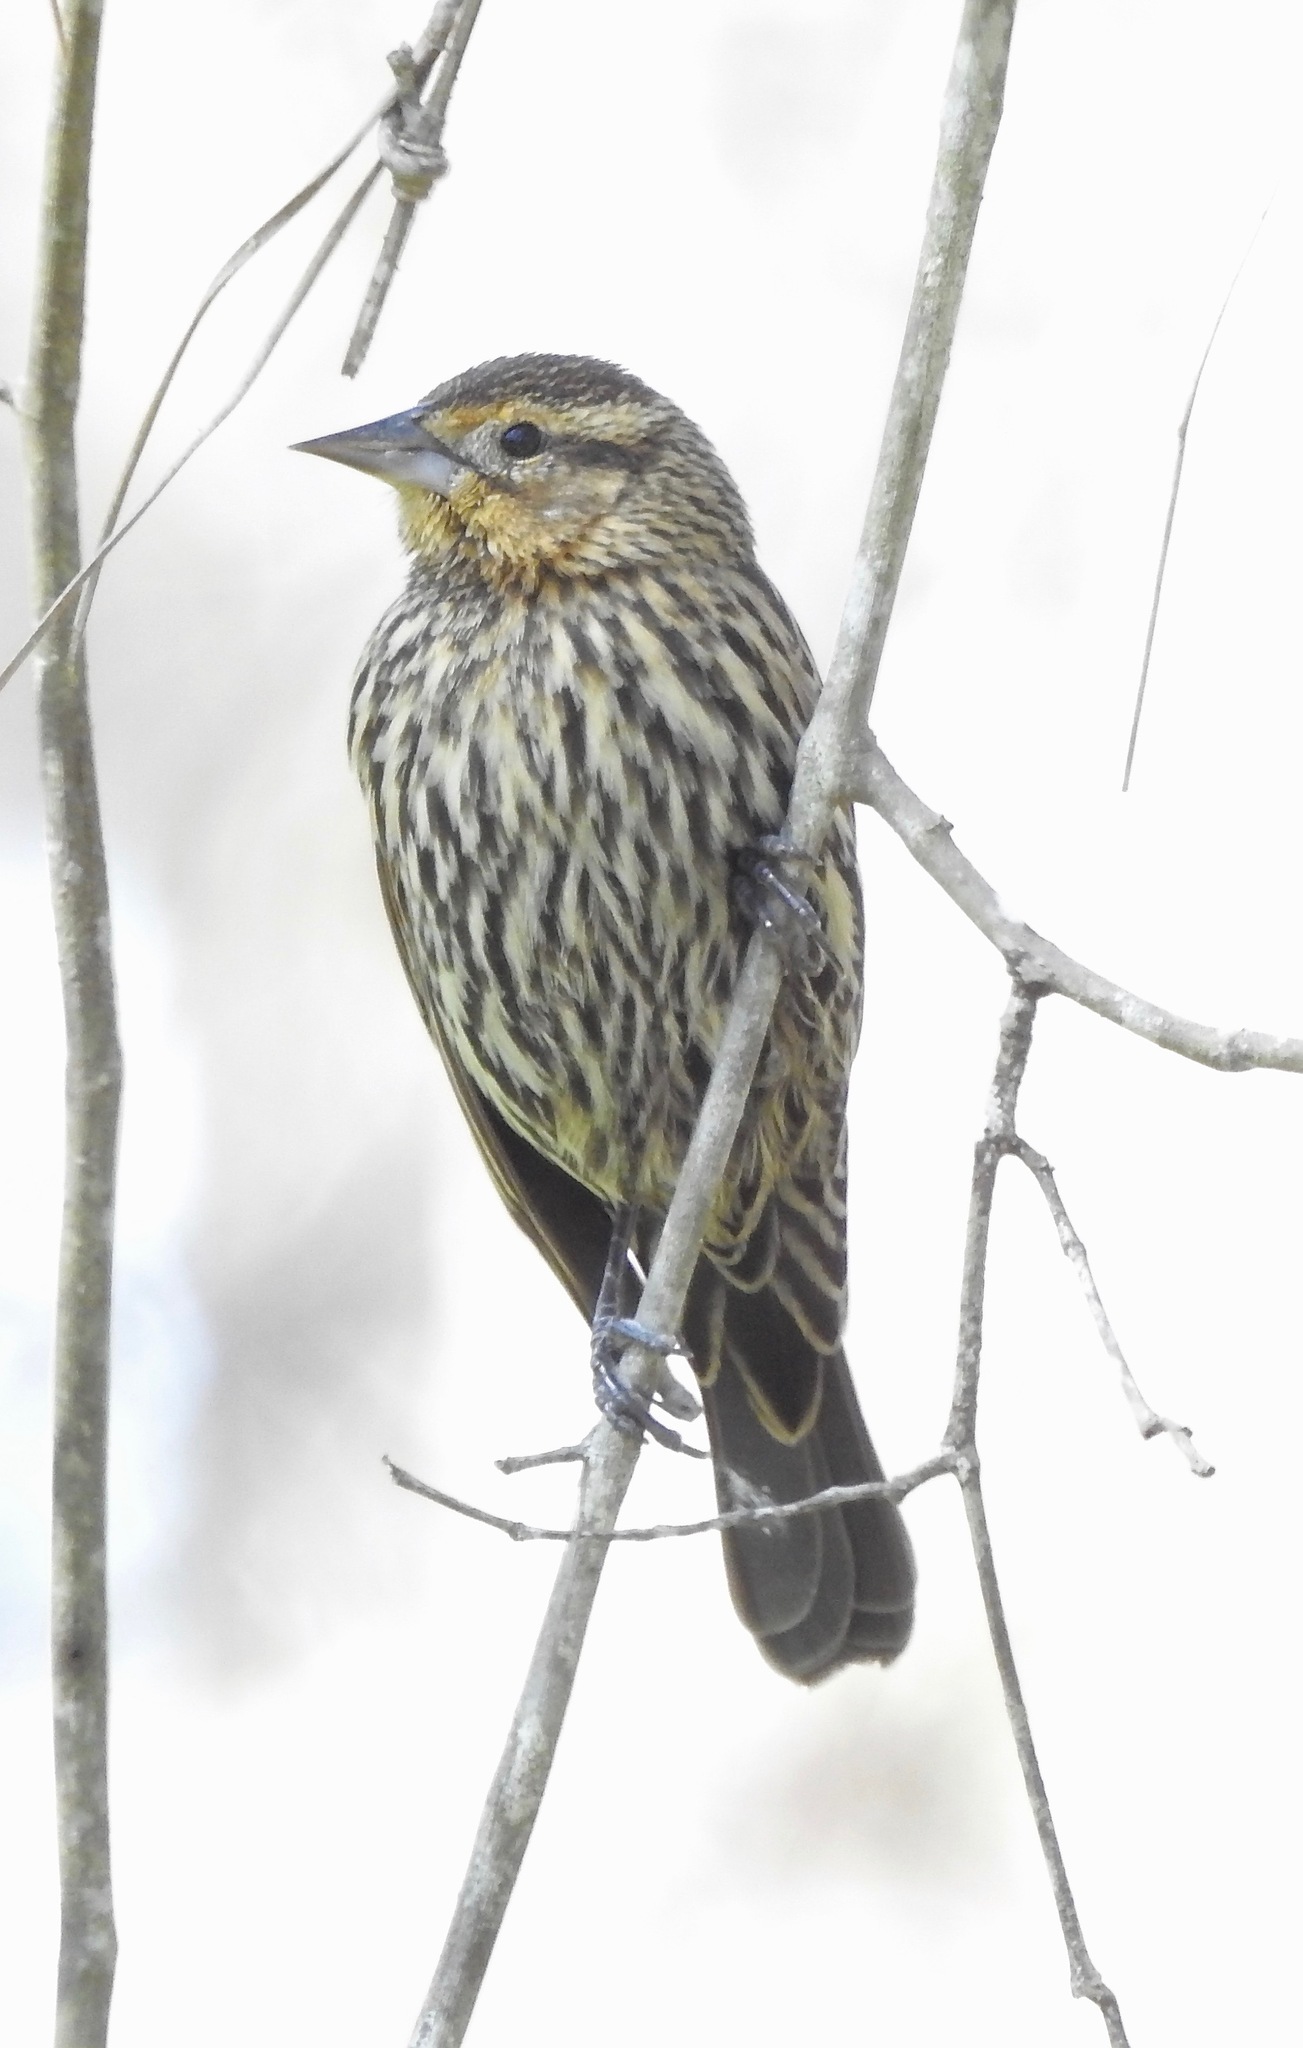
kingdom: Animalia
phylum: Chordata
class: Aves
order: Passeriformes
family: Icteridae
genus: Agelaius
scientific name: Agelaius phoeniceus
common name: Red-winged blackbird
